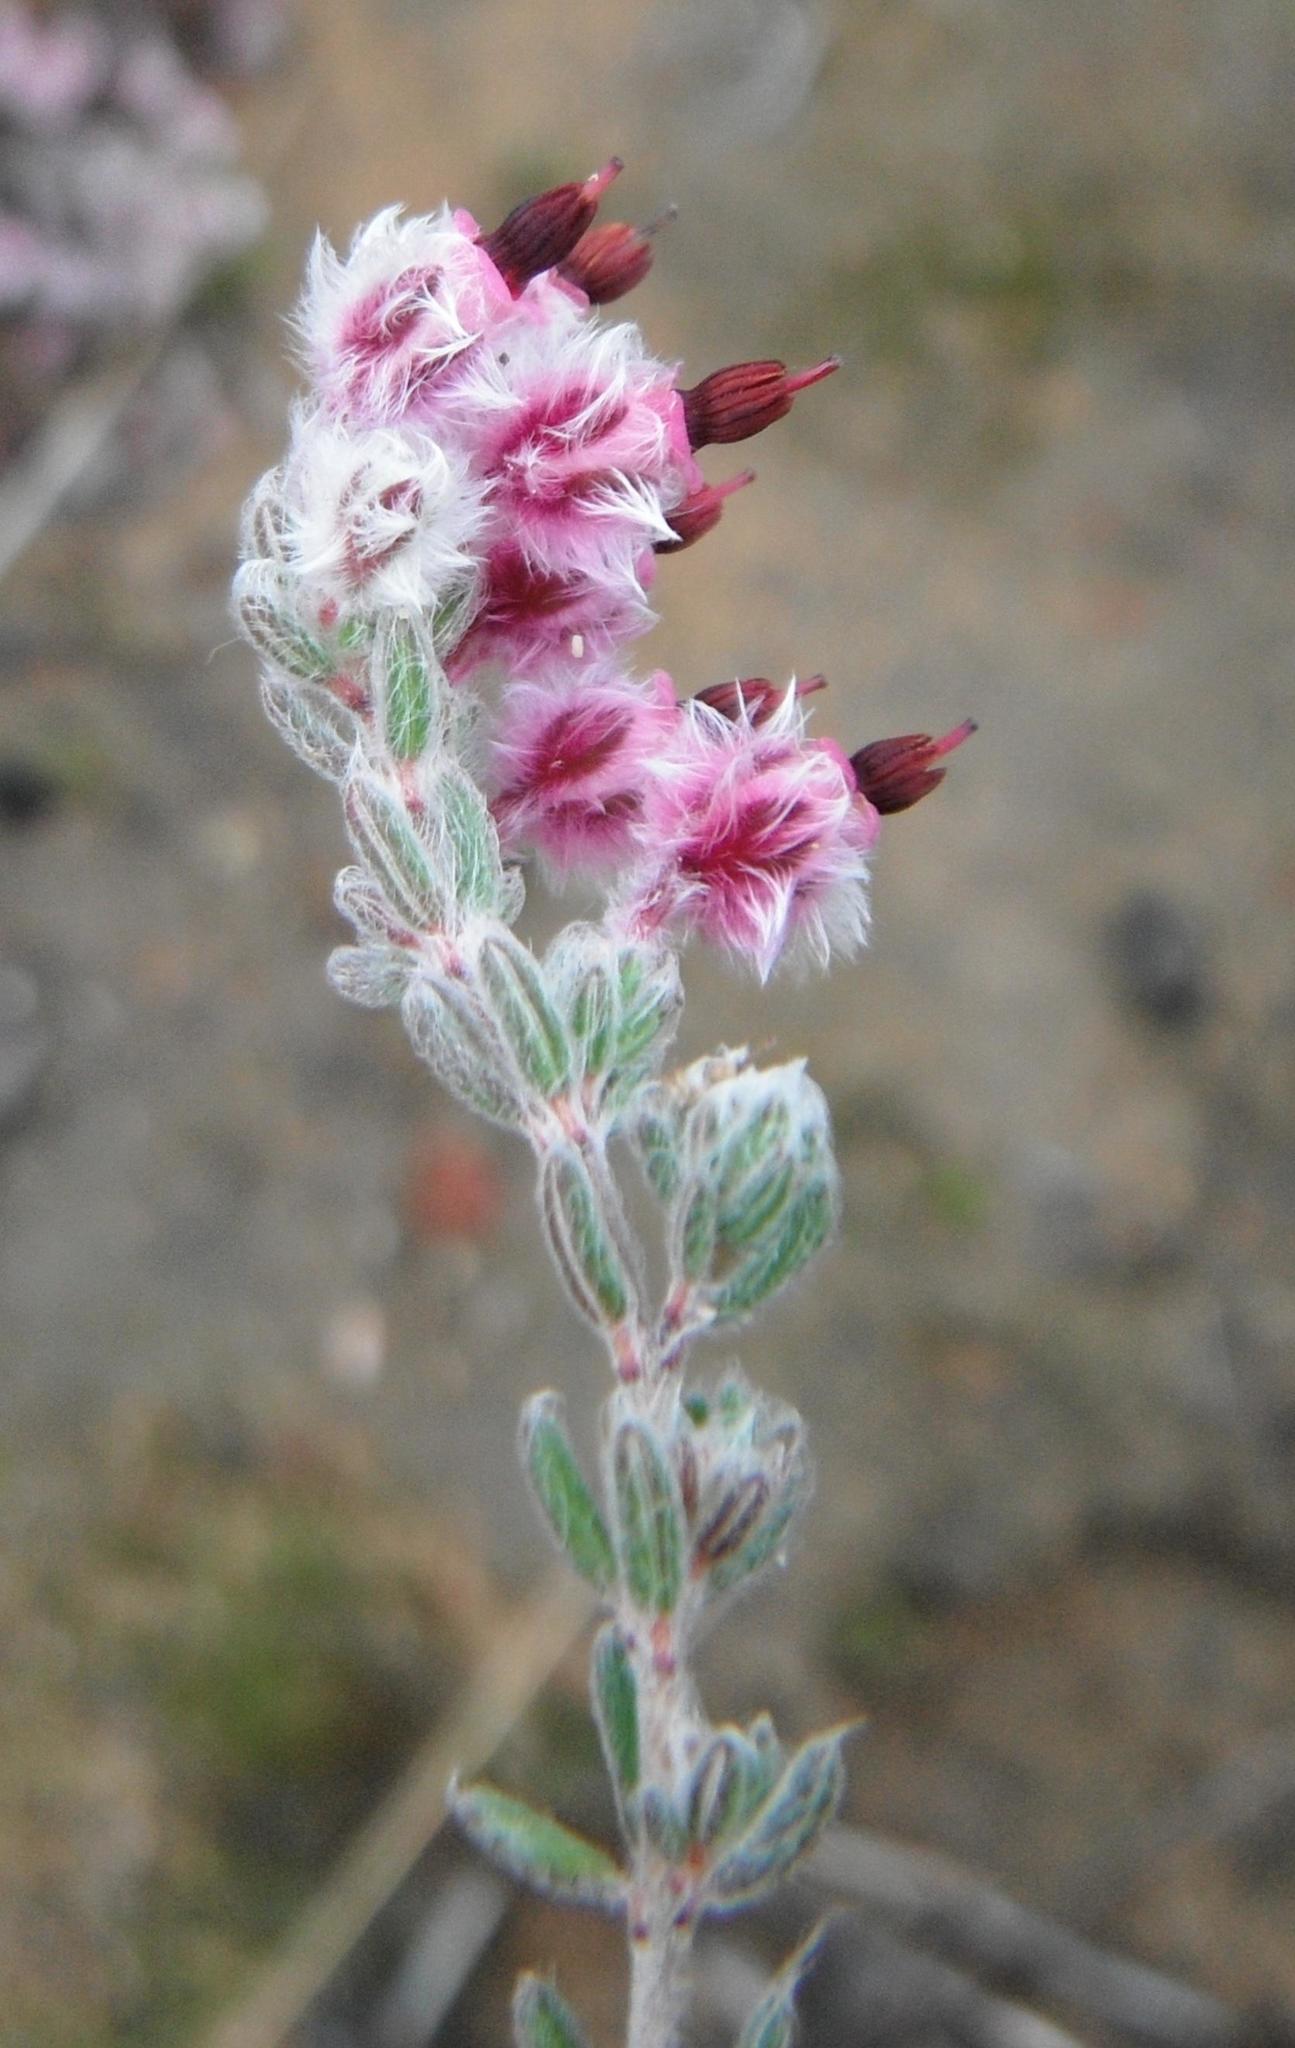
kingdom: Plantae
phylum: Tracheophyta
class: Magnoliopsida
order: Ericales
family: Ericaceae
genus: Erica
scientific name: Erica bruniades
